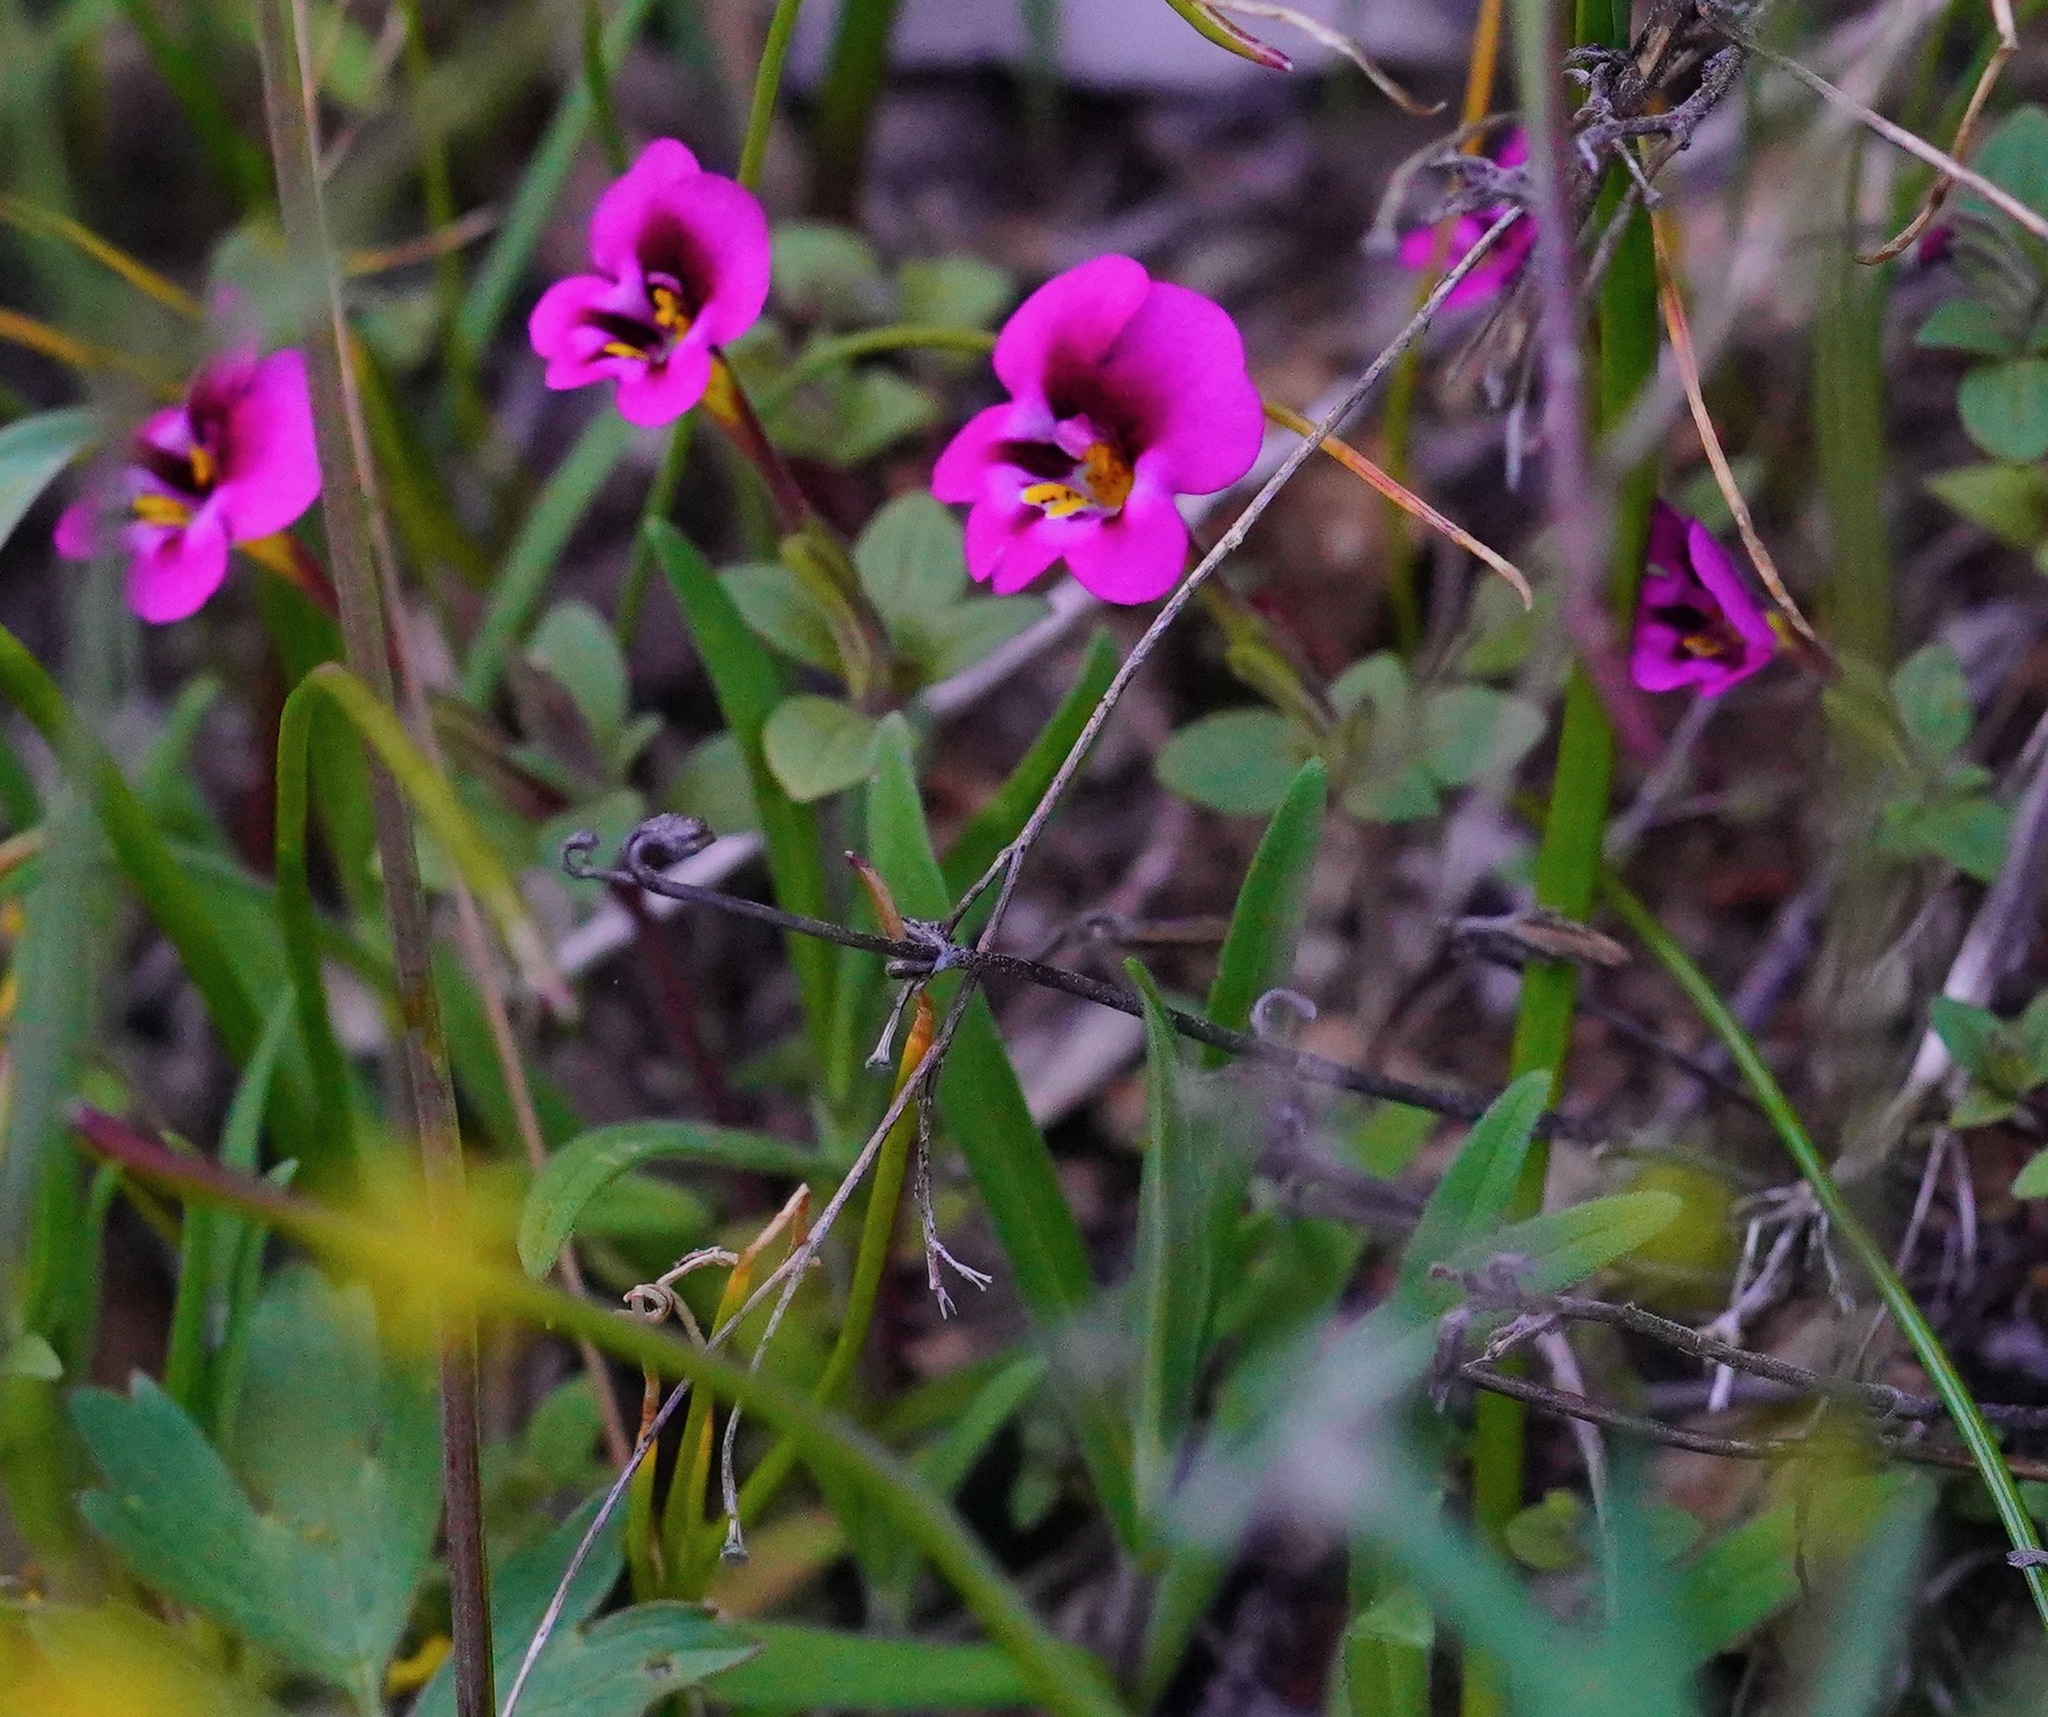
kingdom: Plantae
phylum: Tracheophyta
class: Magnoliopsida
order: Lamiales
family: Phrymaceae
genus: Diplacus
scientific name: Diplacus kelloggii
